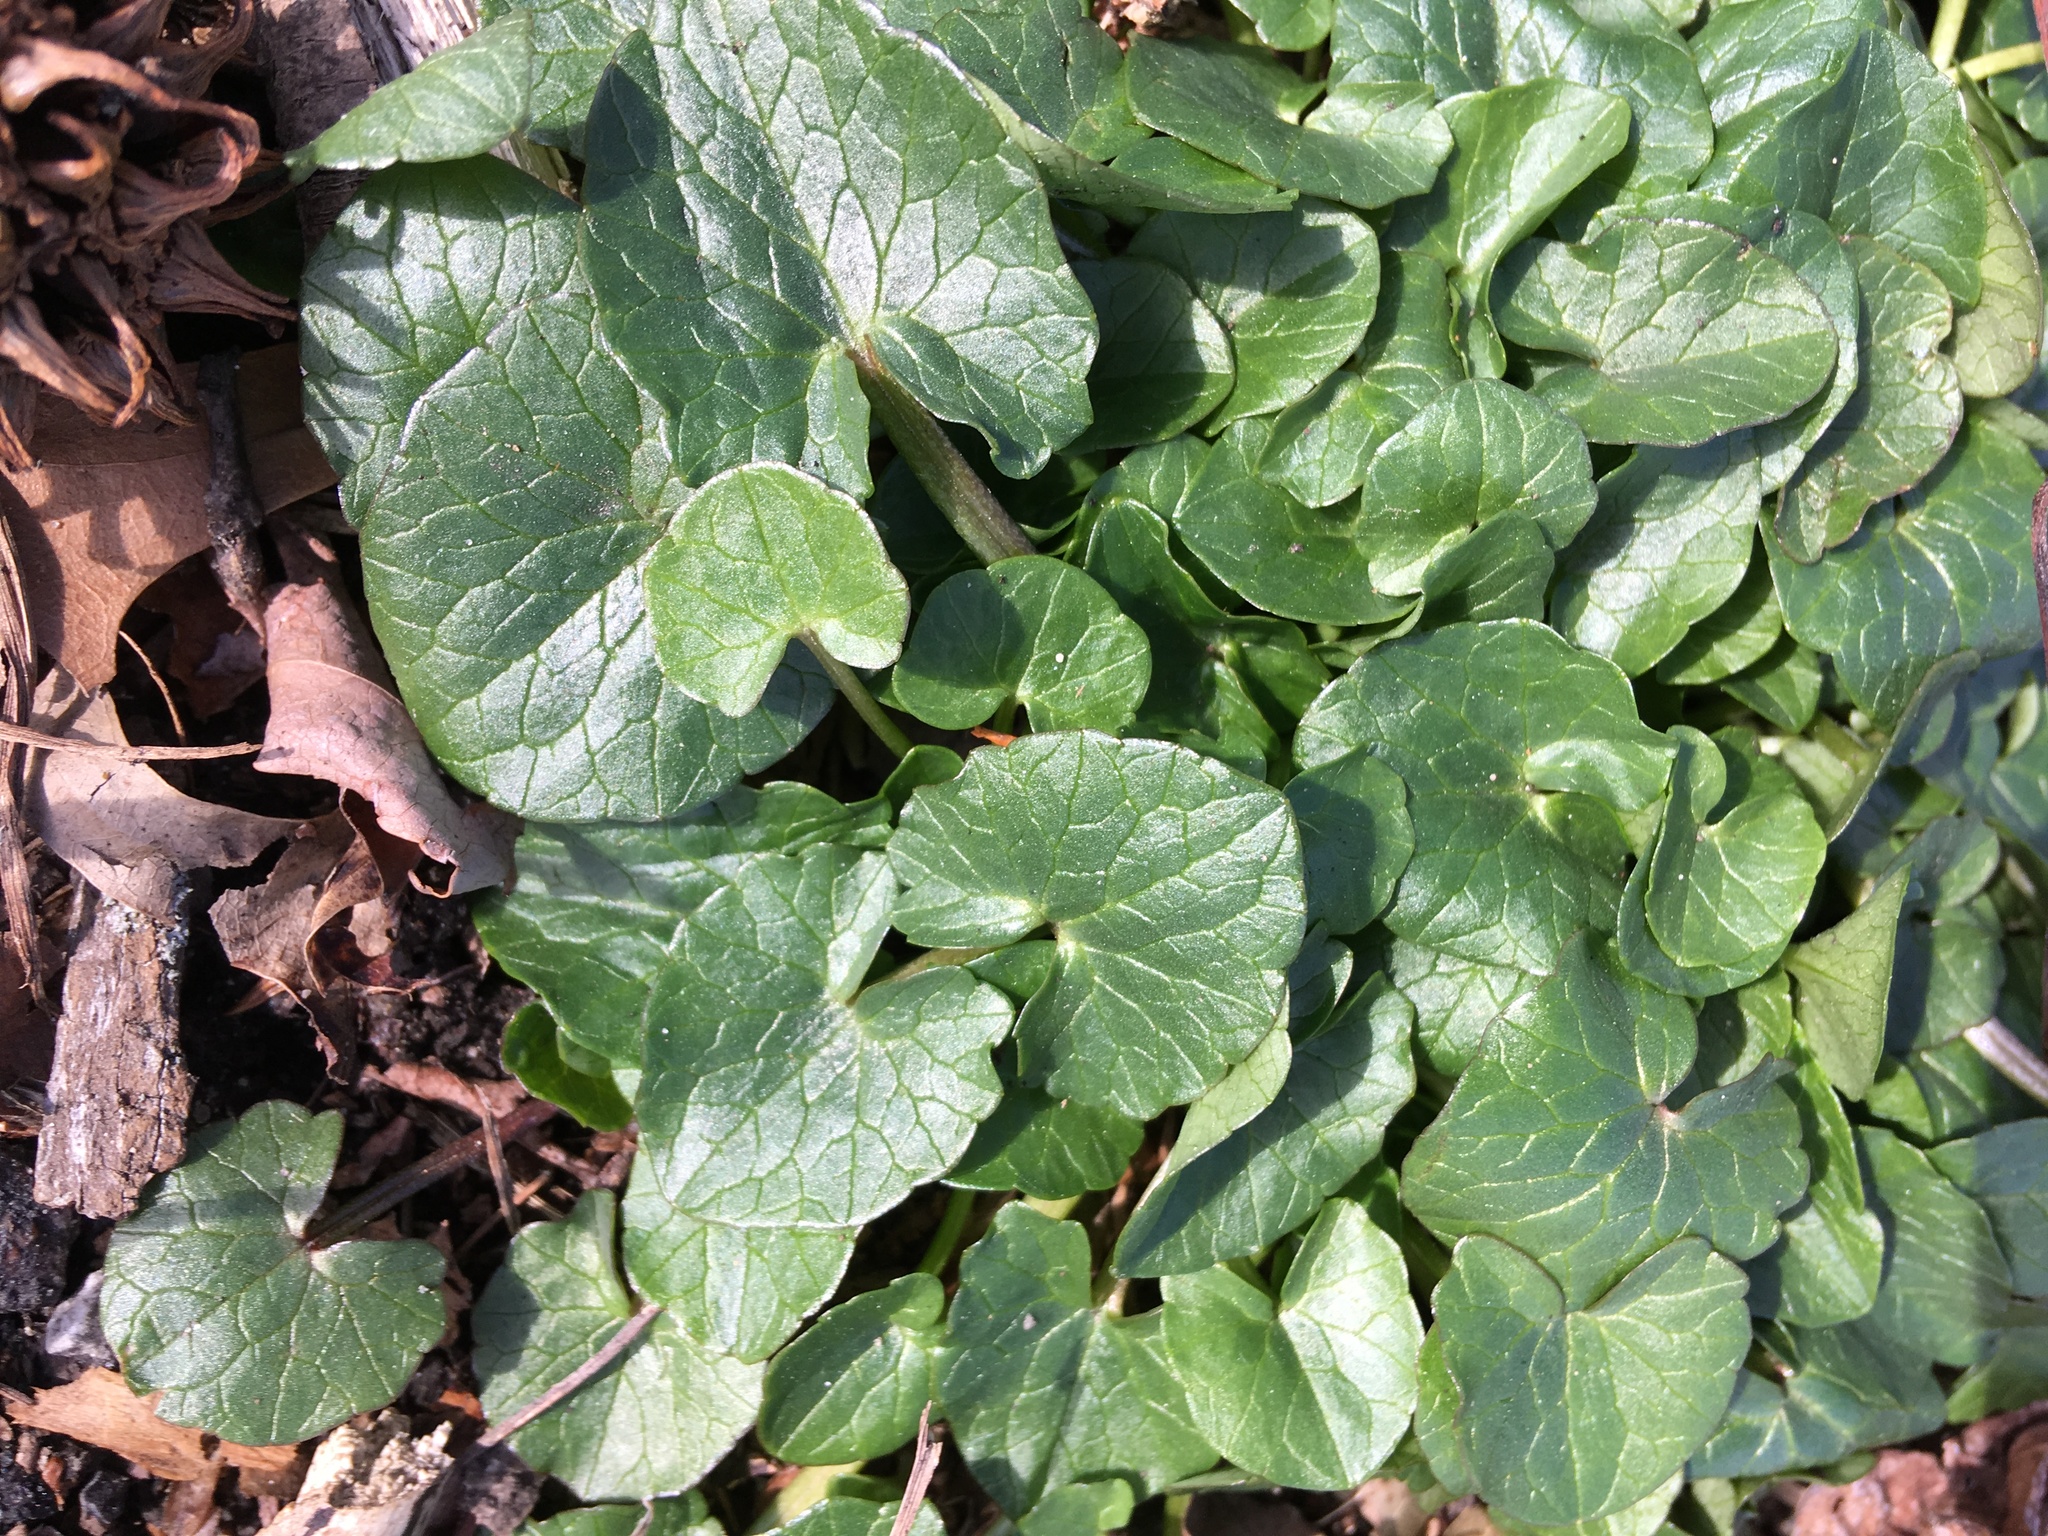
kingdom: Plantae
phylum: Tracheophyta
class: Magnoliopsida
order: Ranunculales
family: Ranunculaceae
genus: Ficaria
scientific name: Ficaria verna
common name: Lesser celandine
